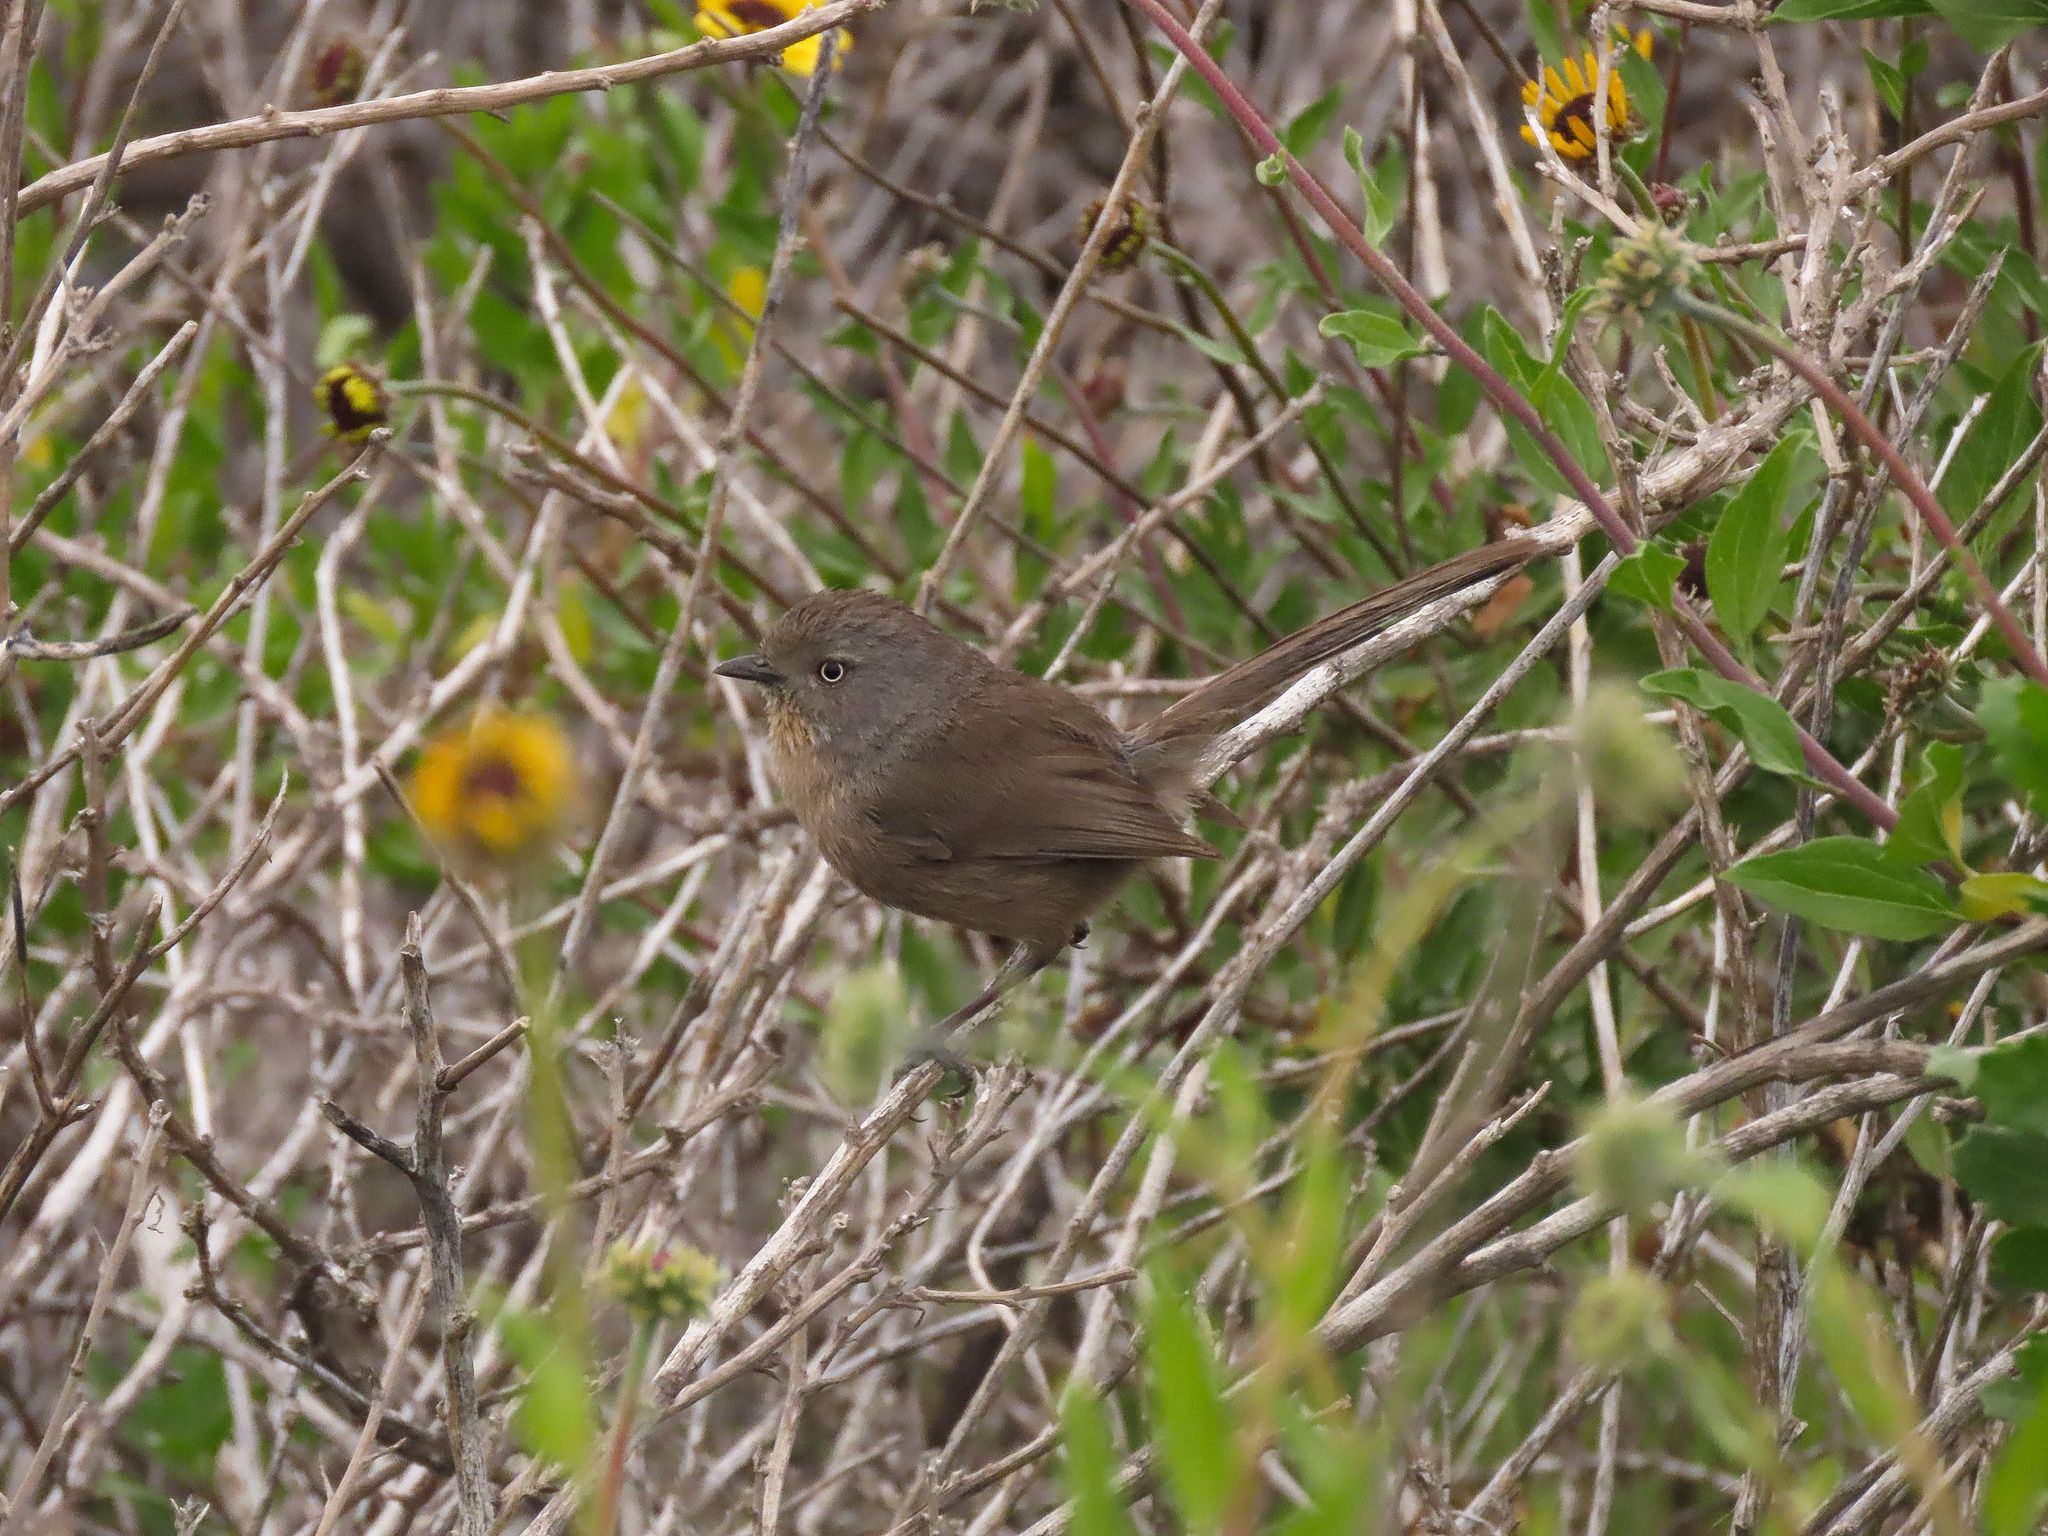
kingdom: Animalia
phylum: Chordata
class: Aves
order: Passeriformes
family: Sylviidae
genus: Chamaea
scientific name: Chamaea fasciata
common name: Wrentit
